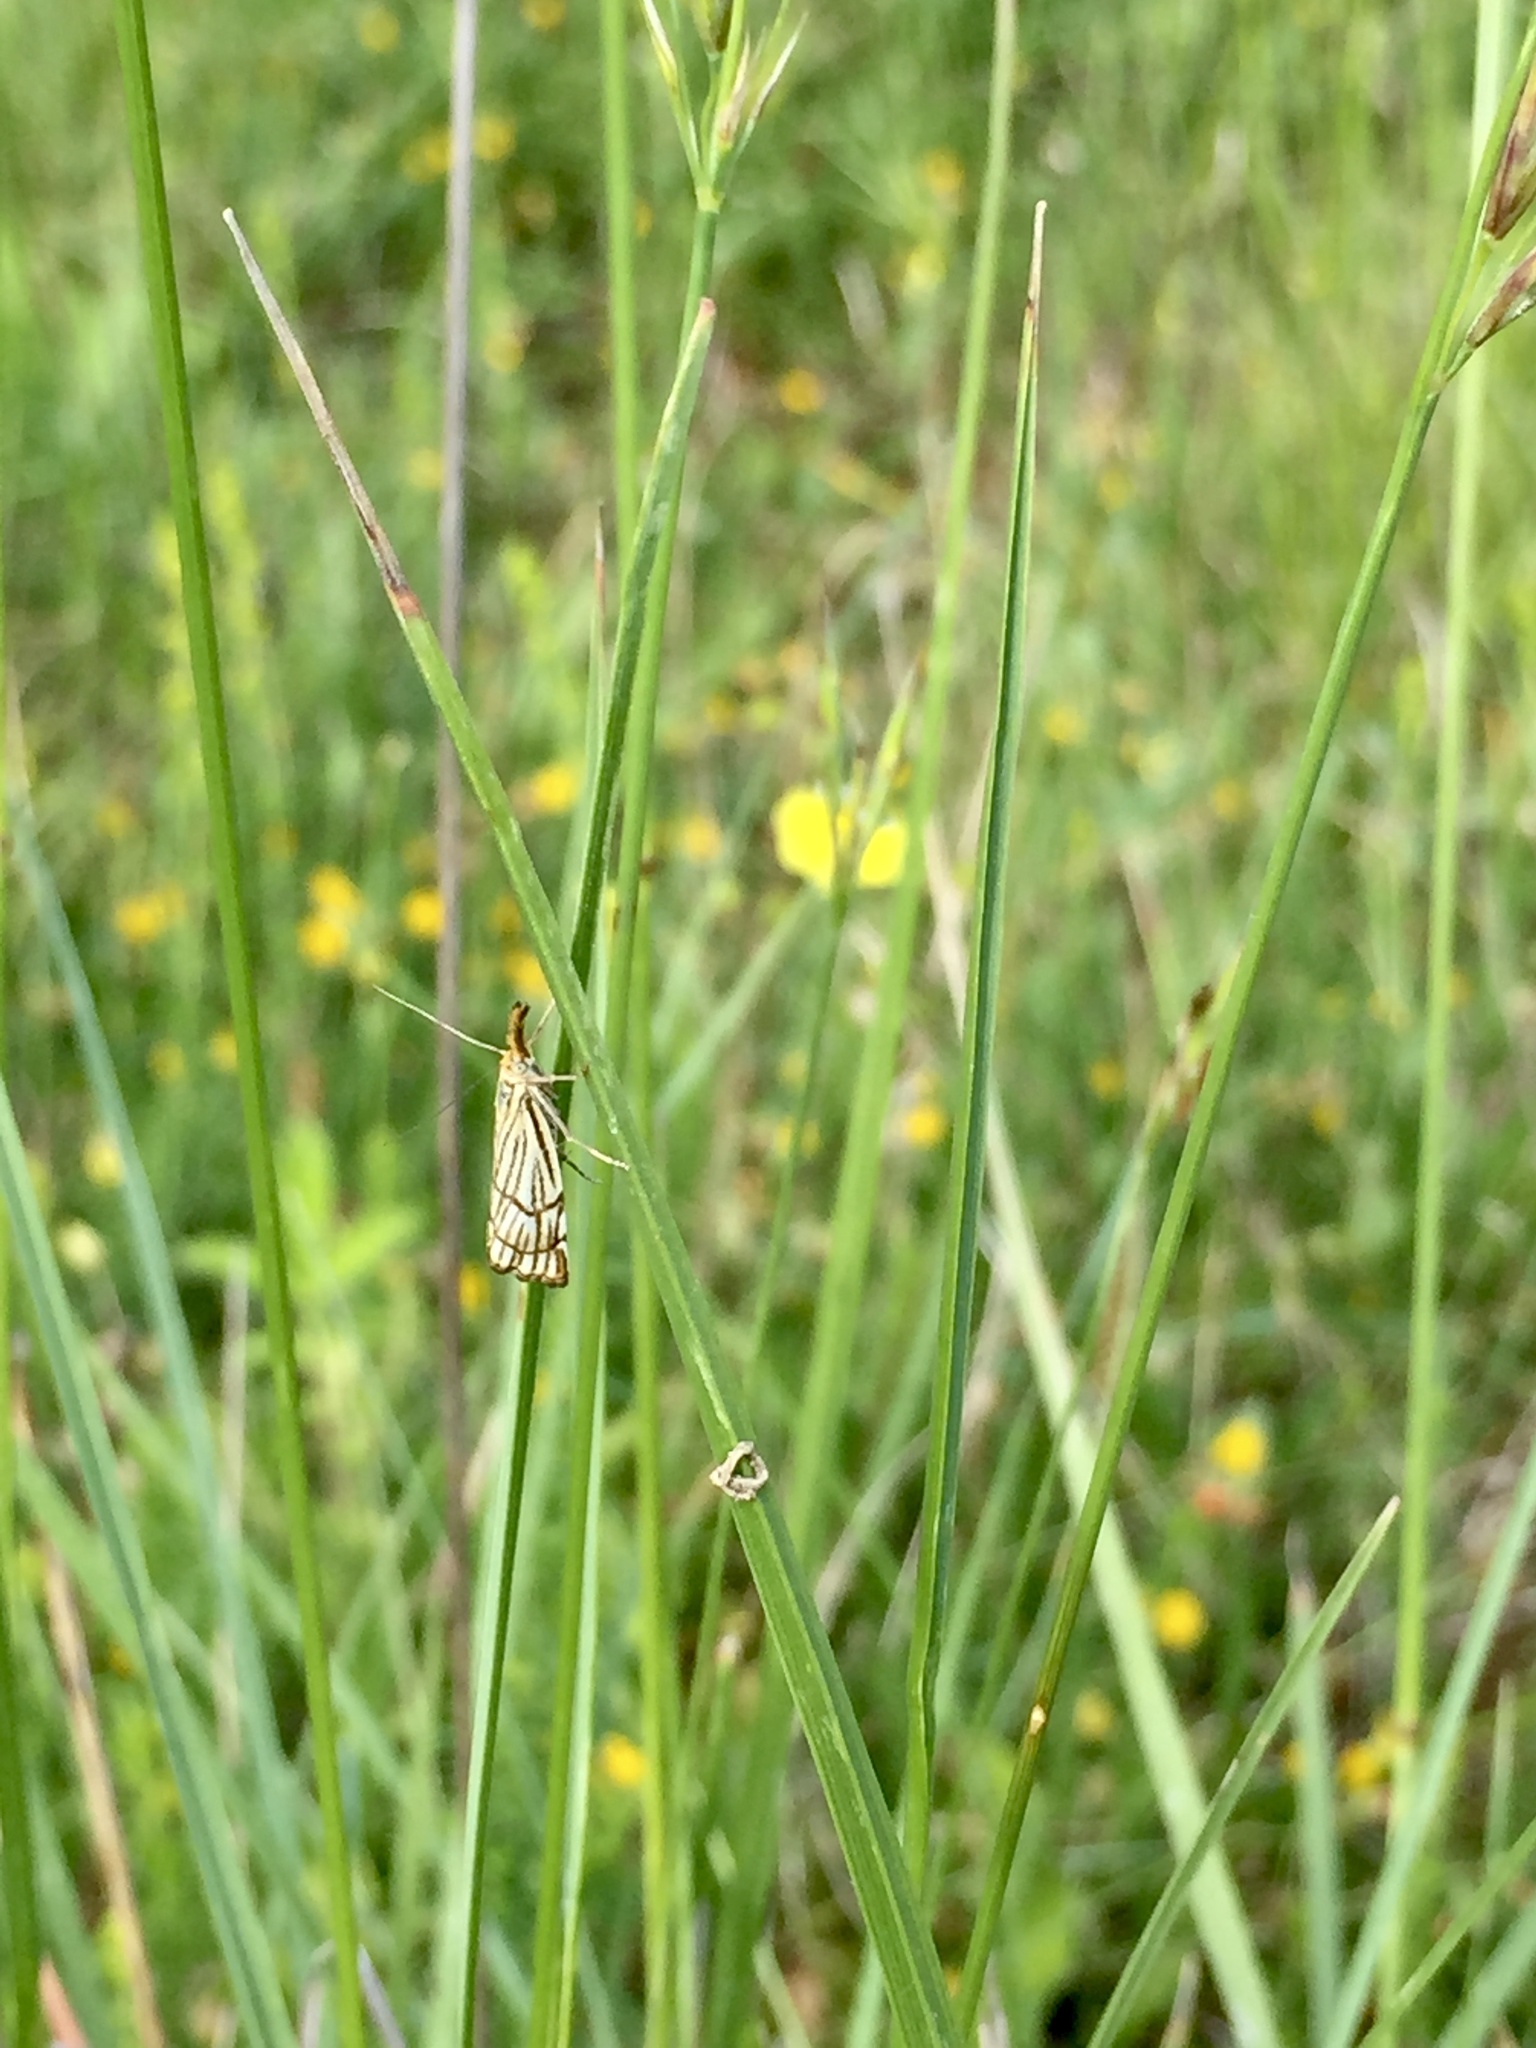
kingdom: Animalia
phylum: Arthropoda
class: Insecta
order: Lepidoptera
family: Crambidae
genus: Chrysocrambus
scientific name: Chrysocrambus Chrysocramboides craterellus
